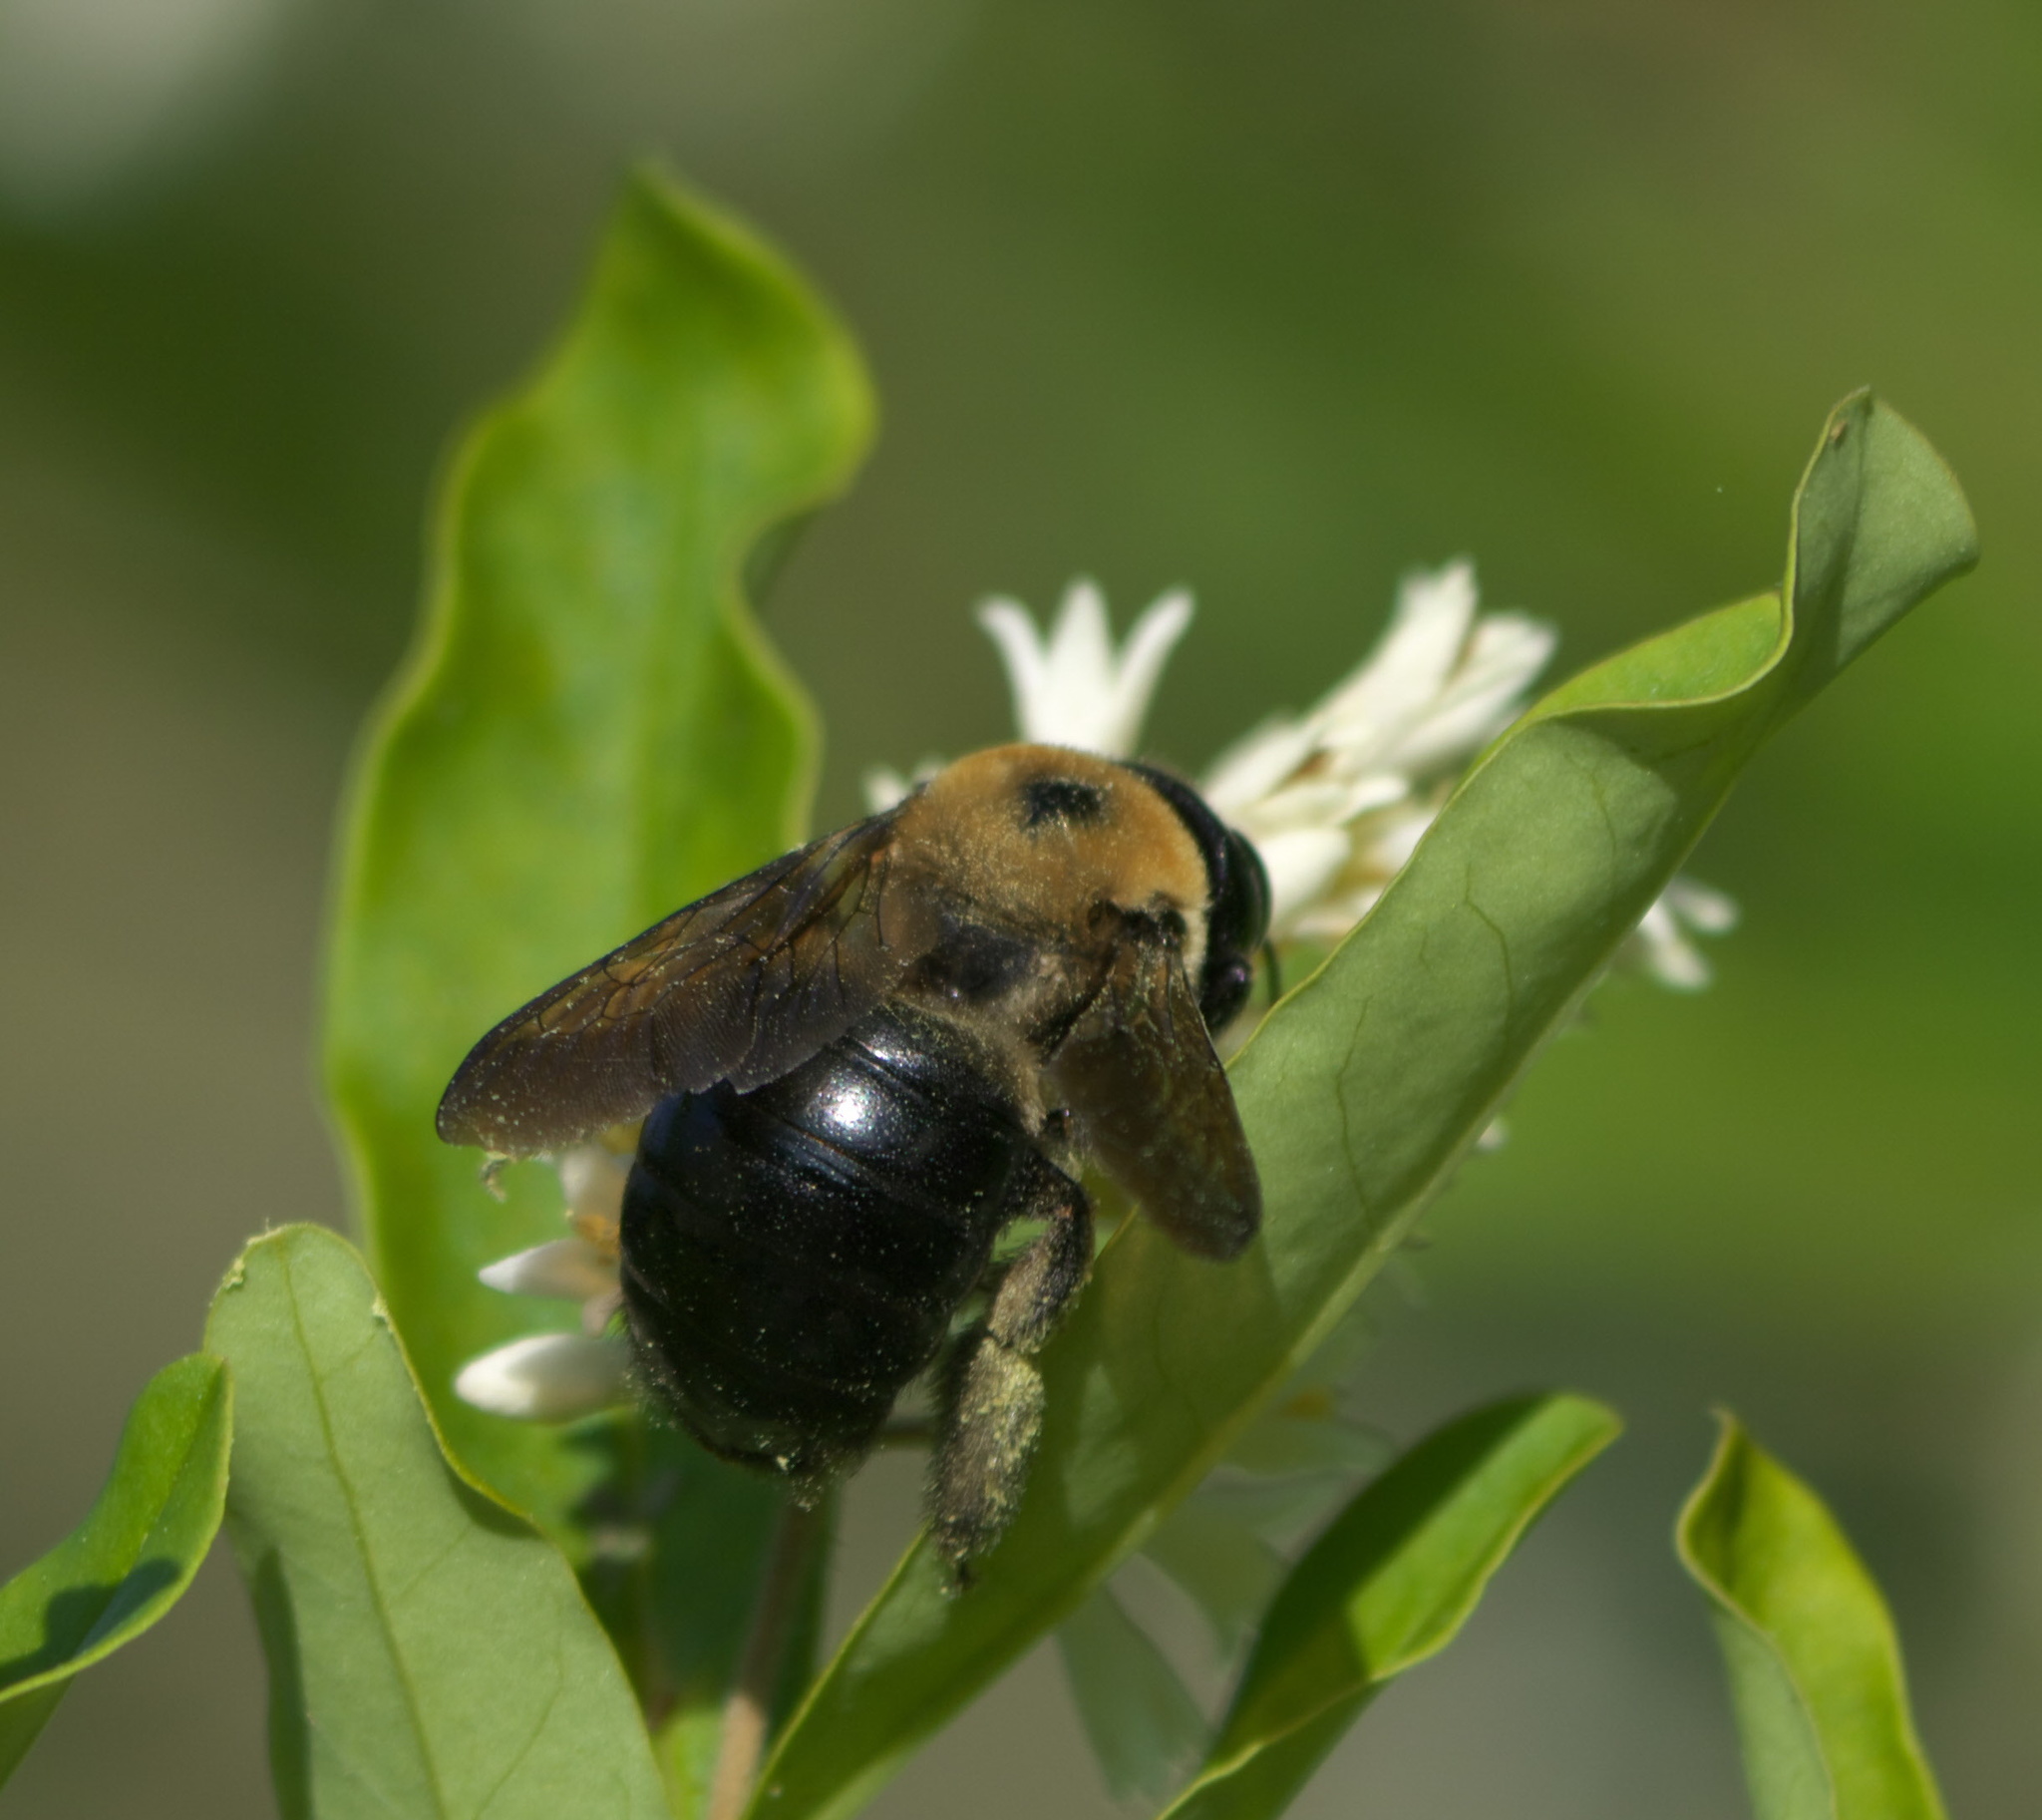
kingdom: Animalia
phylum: Arthropoda
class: Insecta
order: Hymenoptera
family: Apidae
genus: Xylocopa
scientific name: Xylocopa virginica
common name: Carpenter bee
